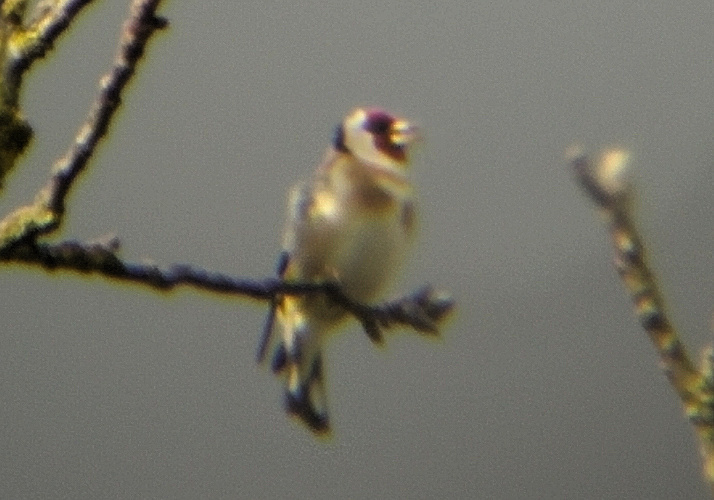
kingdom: Animalia
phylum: Chordata
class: Aves
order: Passeriformes
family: Fringillidae
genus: Carduelis
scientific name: Carduelis carduelis
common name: European goldfinch
